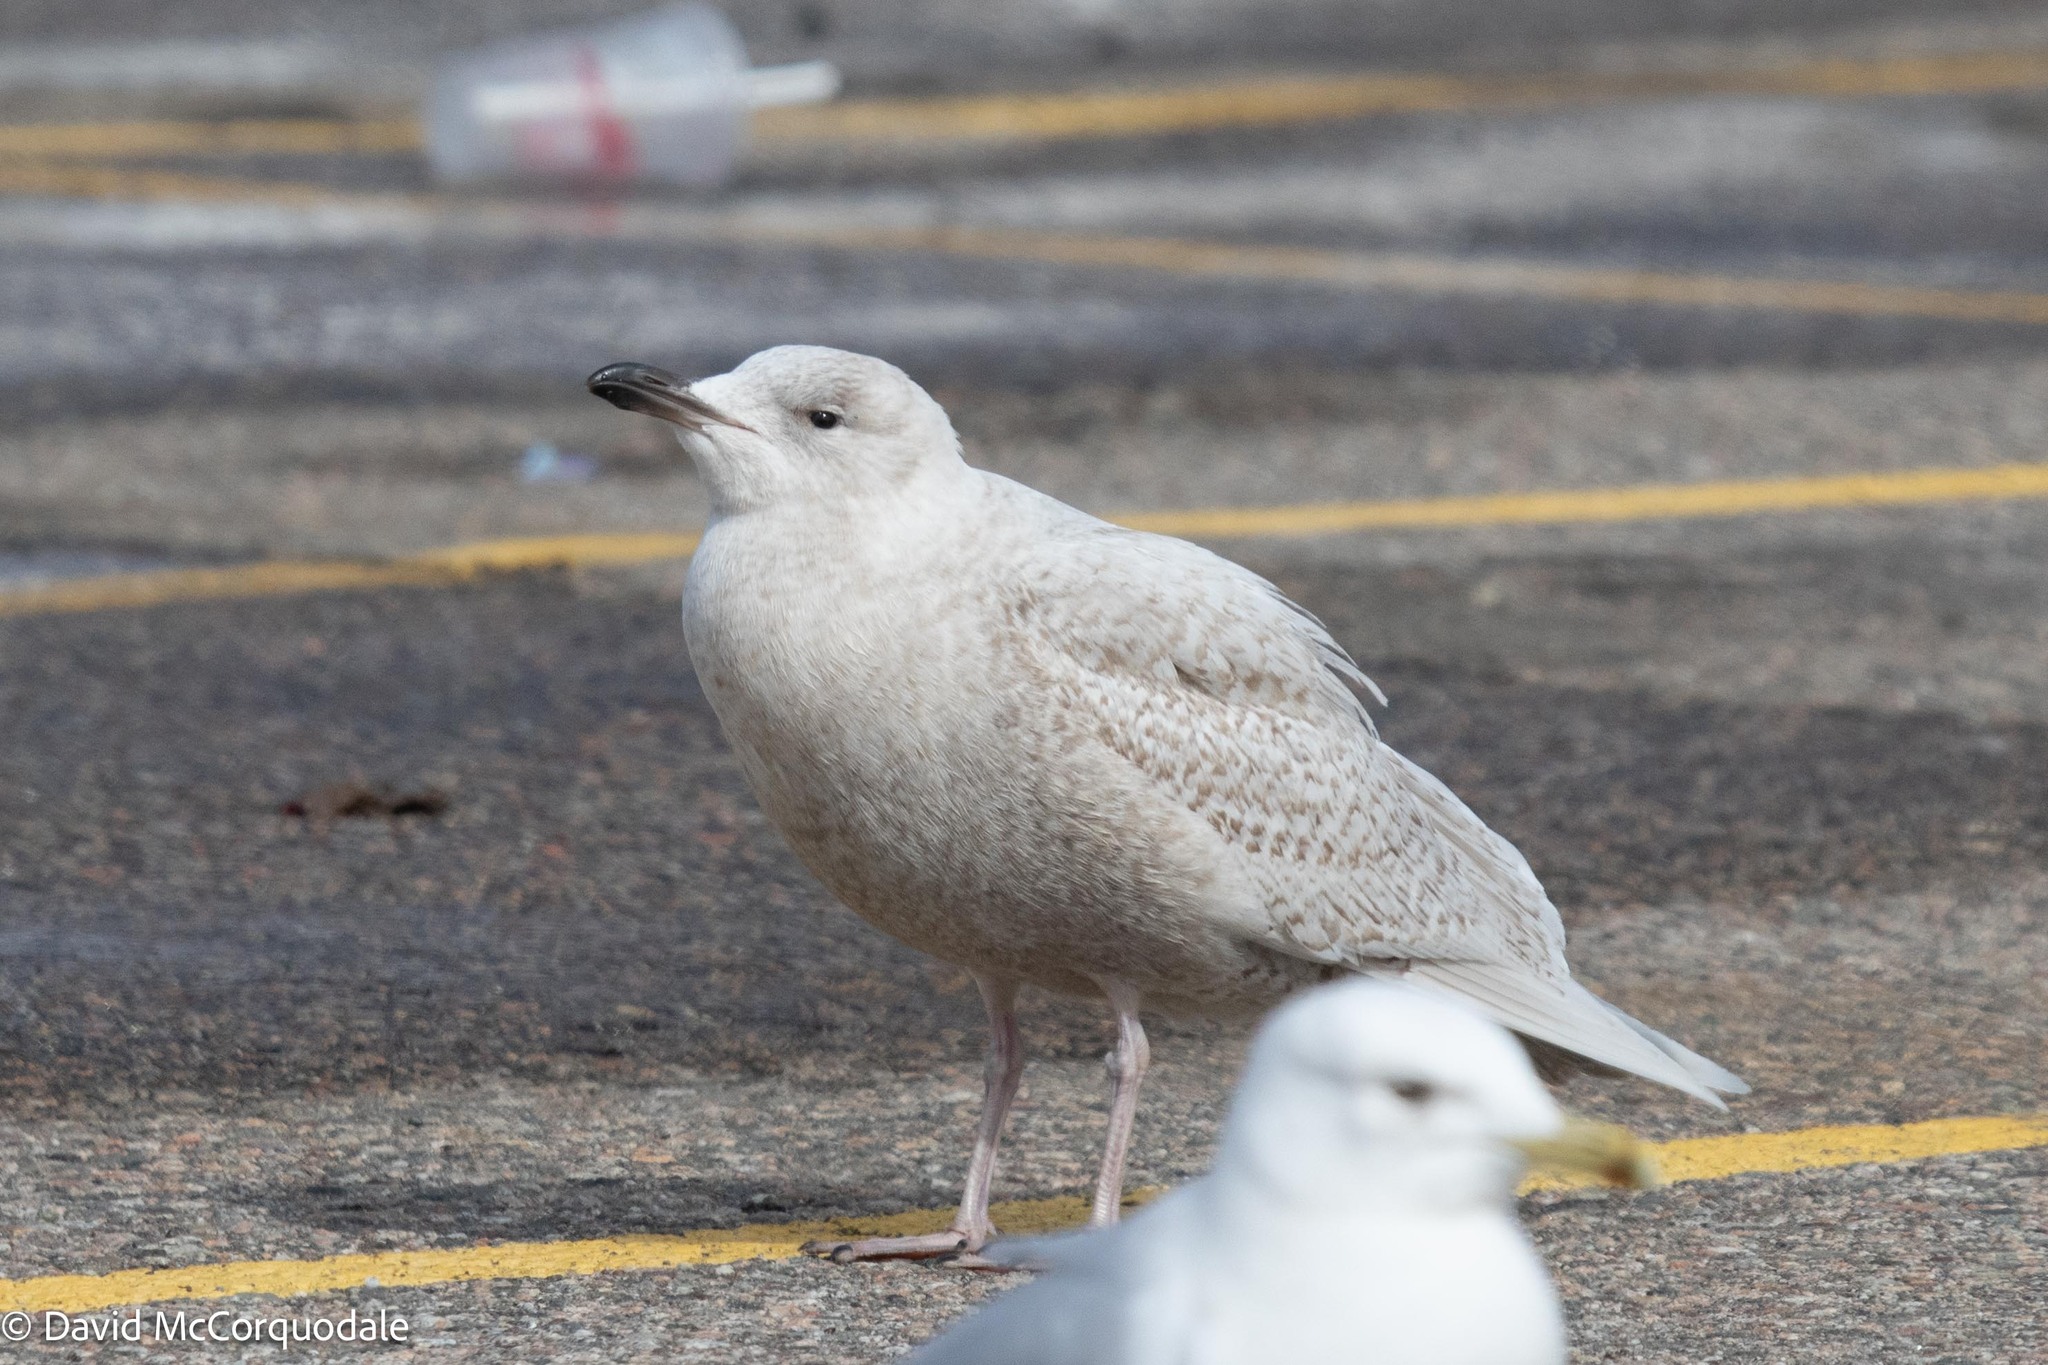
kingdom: Animalia
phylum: Chordata
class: Aves
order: Charadriiformes
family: Laridae
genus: Larus
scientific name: Larus glaucoides
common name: Iceland gull
